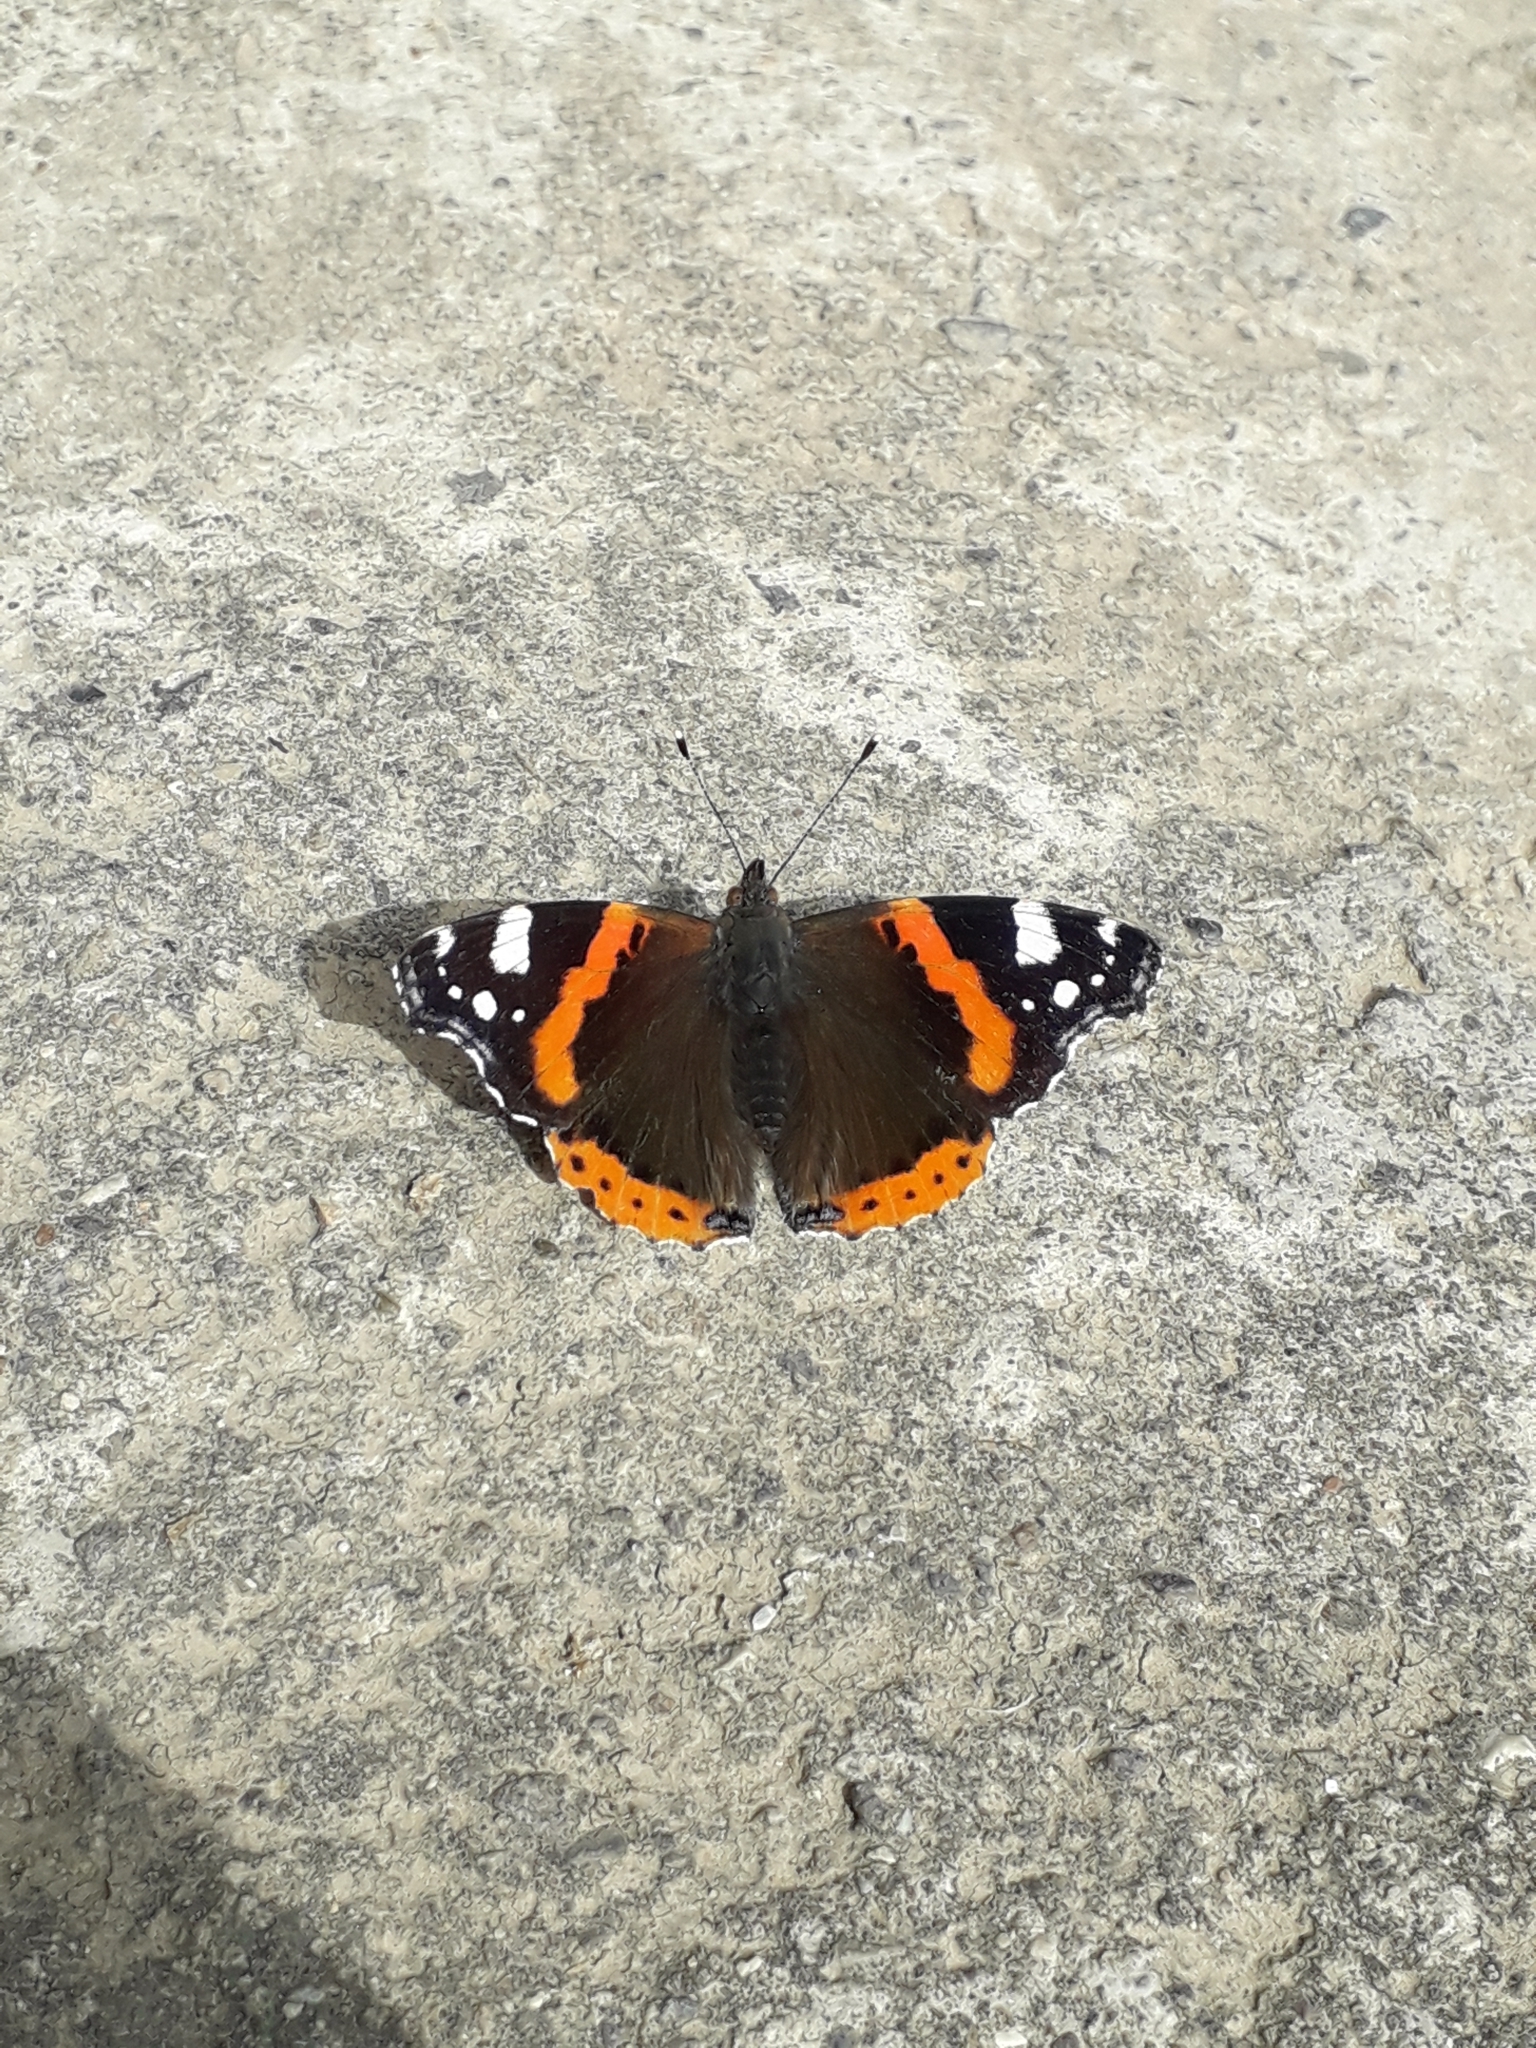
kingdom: Animalia
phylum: Arthropoda
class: Insecta
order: Lepidoptera
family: Nymphalidae
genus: Vanessa
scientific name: Vanessa atalanta
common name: Red admiral
